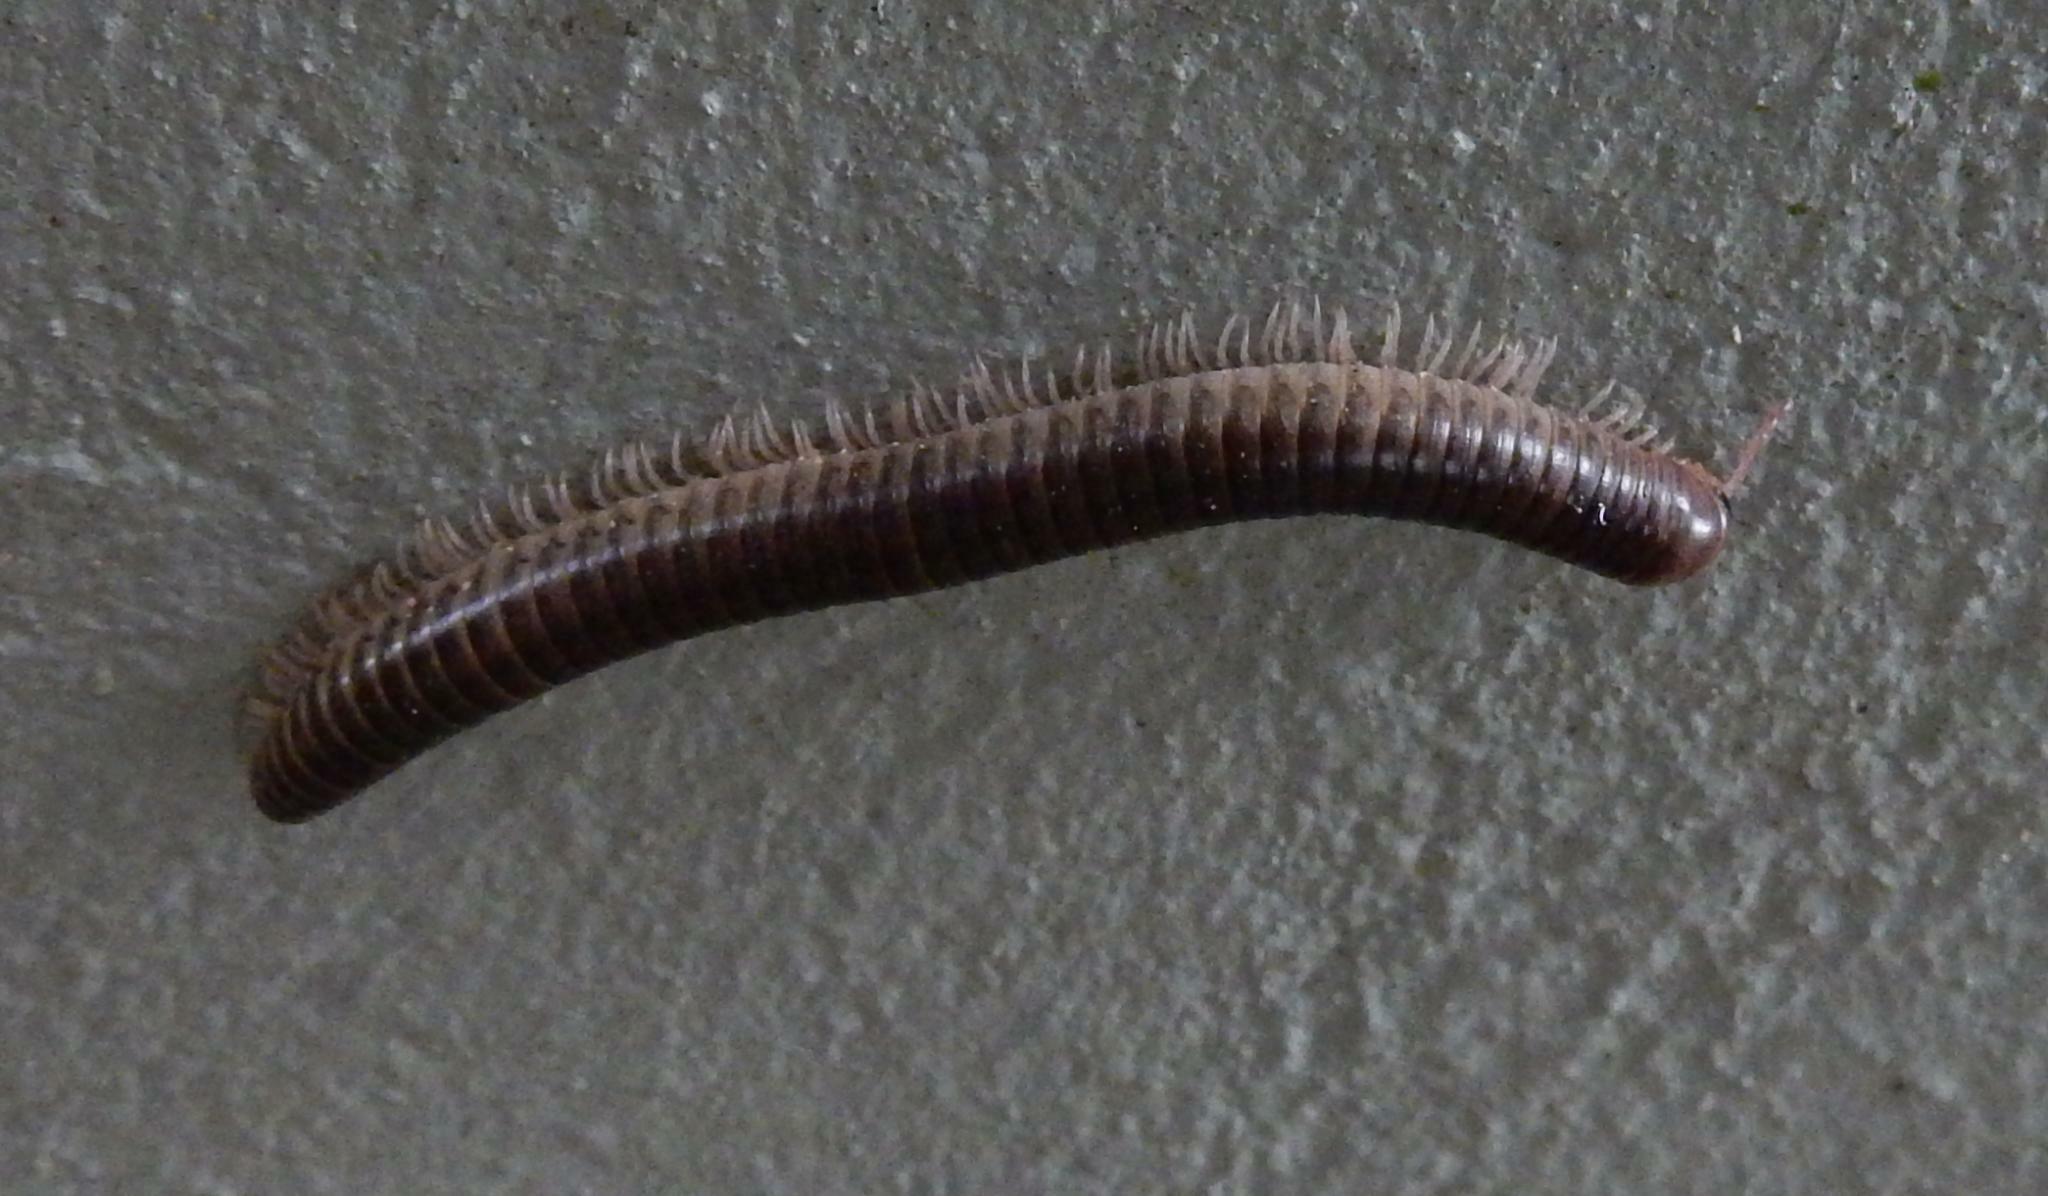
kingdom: Animalia
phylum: Arthropoda
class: Diplopoda
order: Julida
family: Julidae
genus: Ommatoiulus
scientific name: Ommatoiulus moreleti
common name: Portuguese millipede
